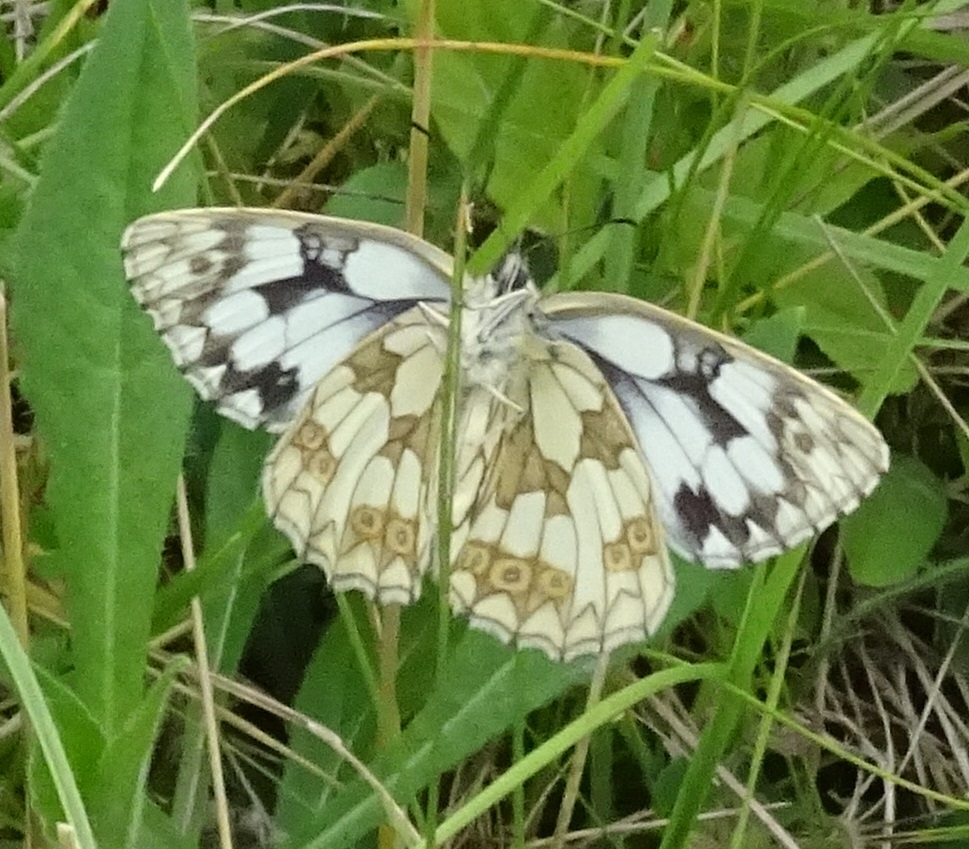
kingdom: Animalia
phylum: Arthropoda
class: Insecta
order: Lepidoptera
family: Nymphalidae
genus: Melanargia
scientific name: Melanargia galathea
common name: Marbled white
